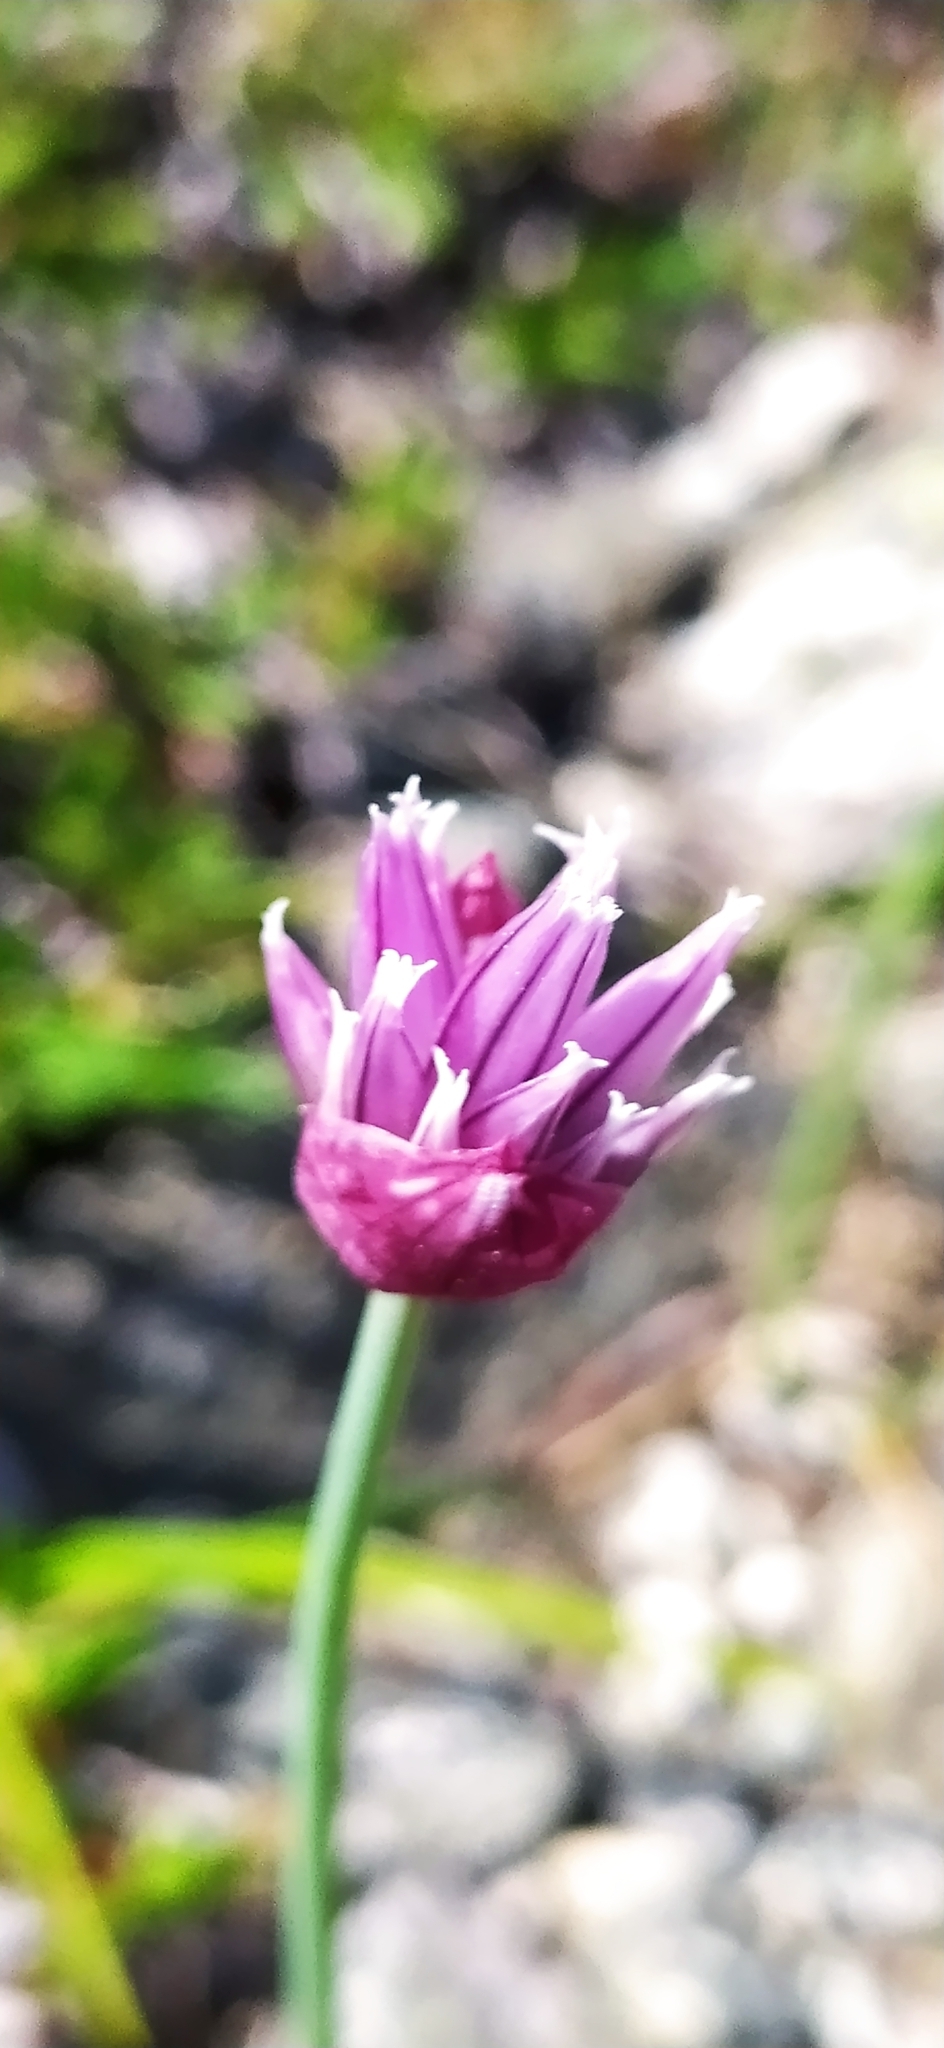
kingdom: Plantae
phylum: Tracheophyta
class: Liliopsida
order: Asparagales
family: Amaryllidaceae
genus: Allium
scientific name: Allium schoenoprasum
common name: Chives
